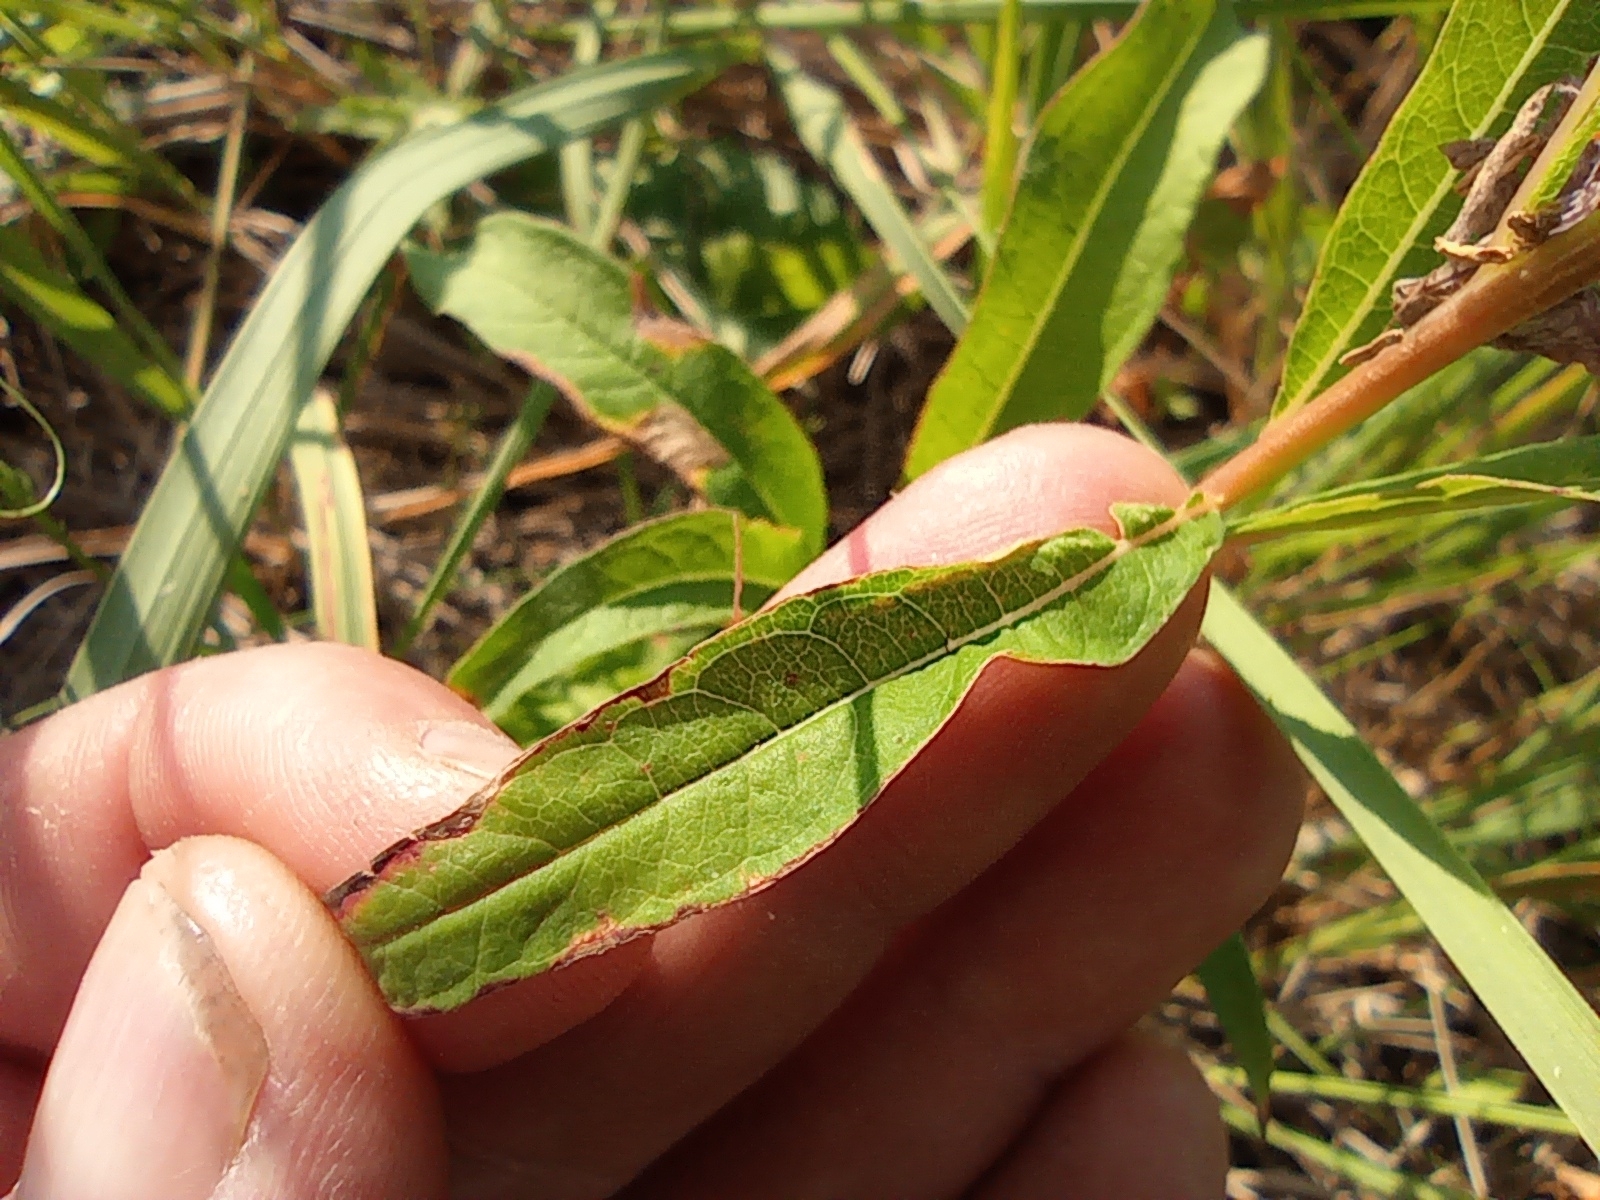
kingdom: Plantae
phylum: Tracheophyta
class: Magnoliopsida
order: Myrtales
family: Onagraceae
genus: Chamaenerion
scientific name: Chamaenerion angustifolium
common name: Fireweed
